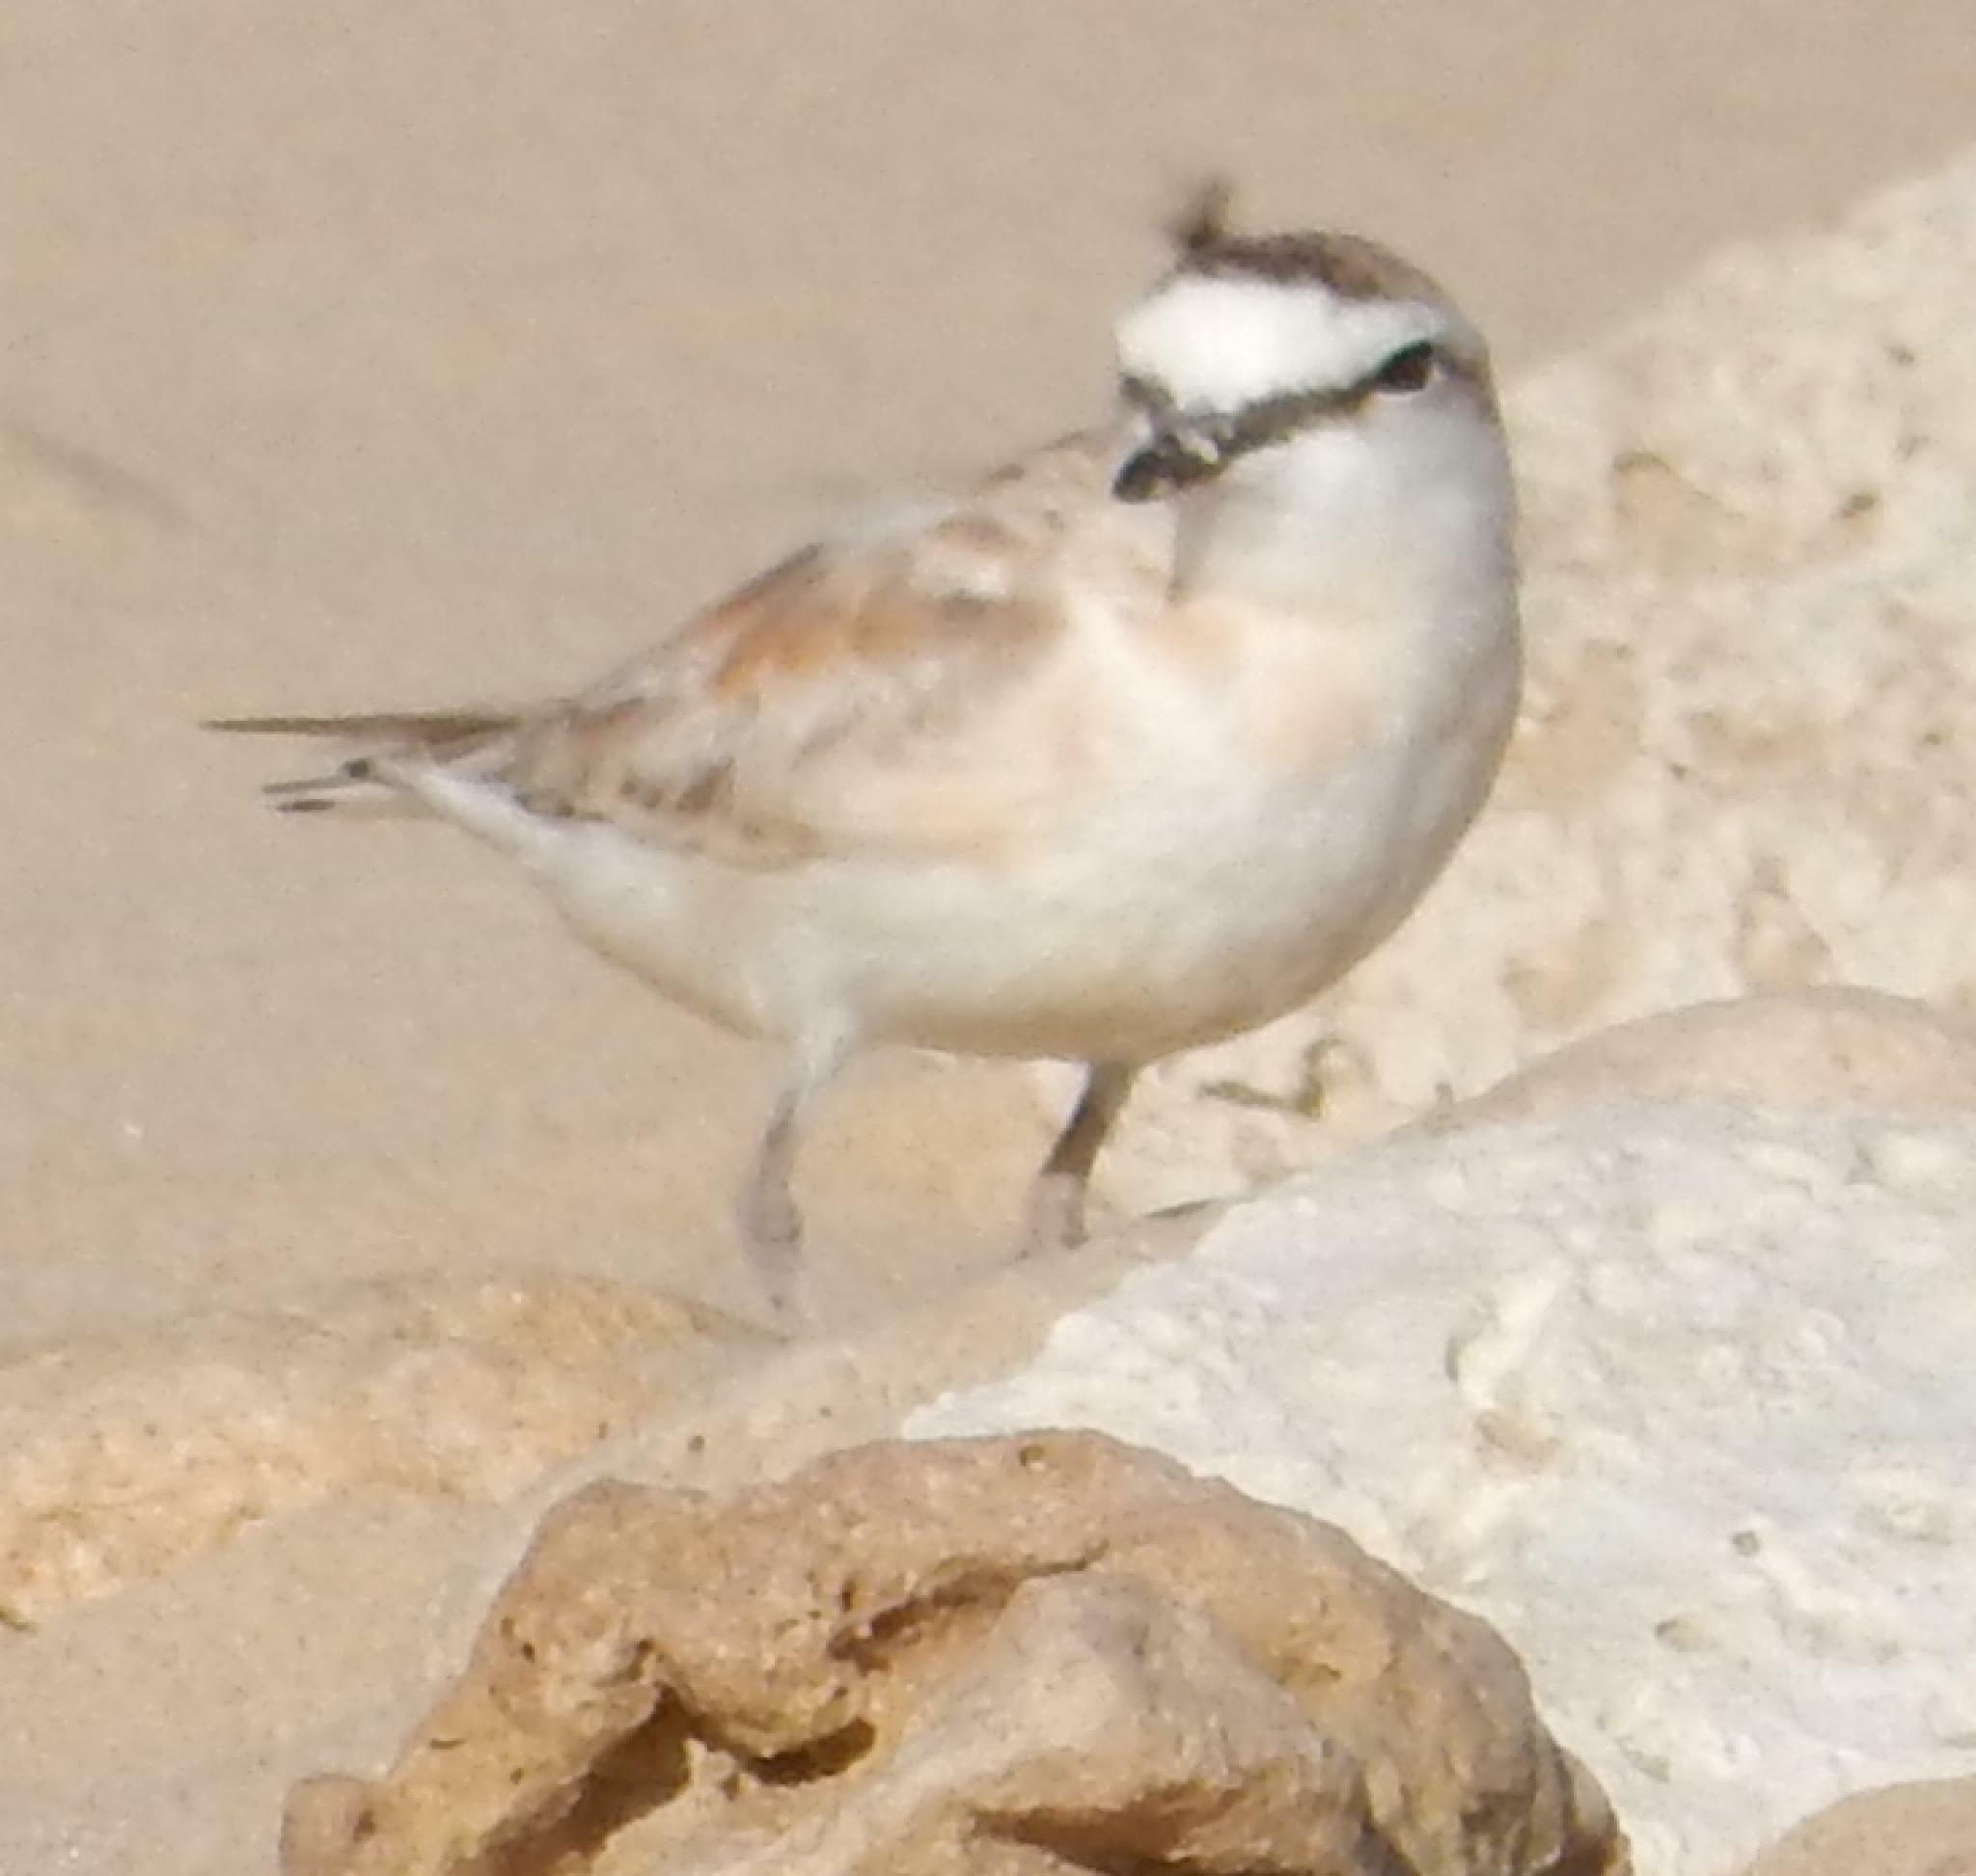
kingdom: Animalia
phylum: Chordata
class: Aves
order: Charadriiformes
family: Charadriidae
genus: Anarhynchus
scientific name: Anarhynchus
